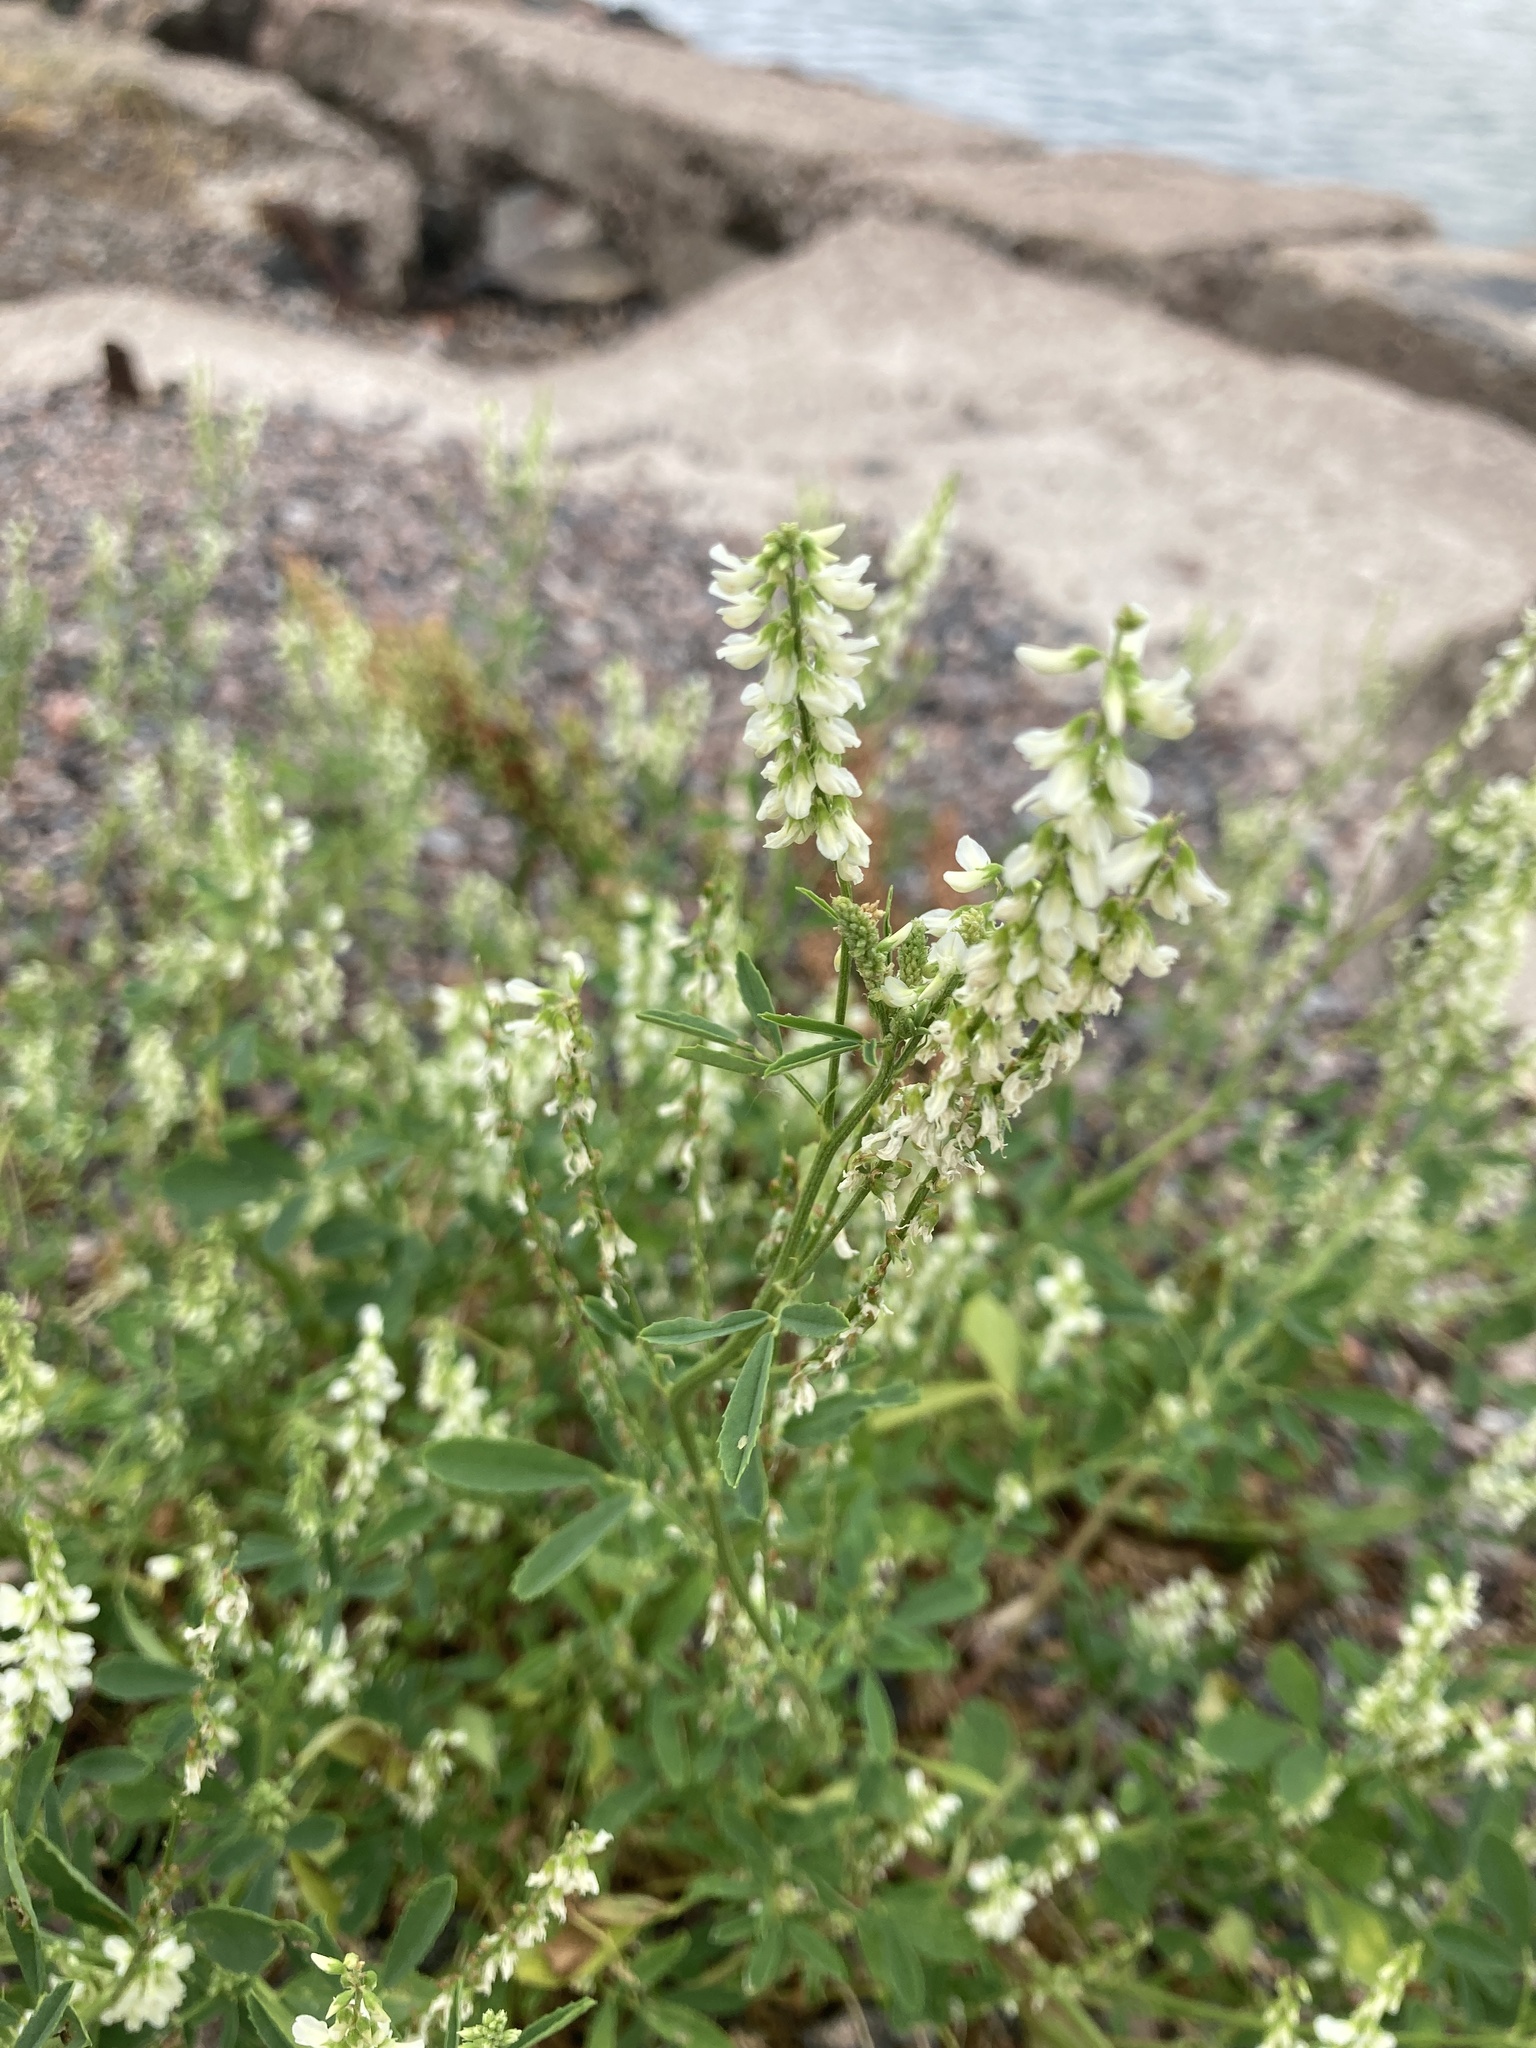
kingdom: Plantae
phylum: Tracheophyta
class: Magnoliopsida
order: Fabales
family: Fabaceae
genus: Melilotus
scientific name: Melilotus albus
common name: White melilot
